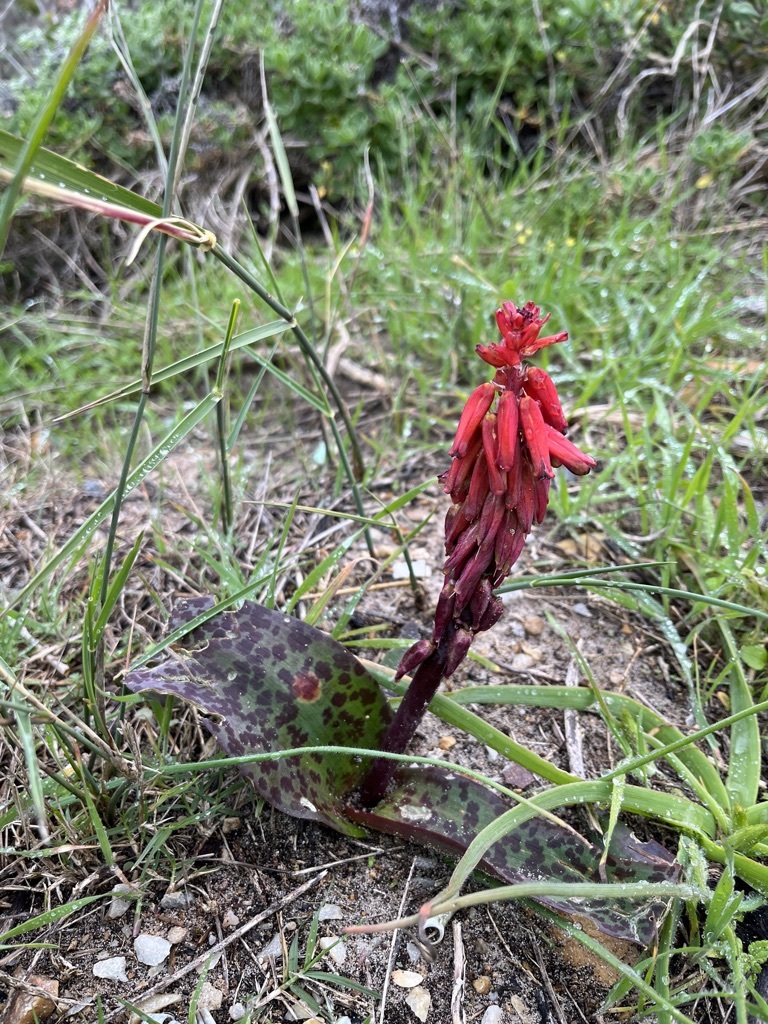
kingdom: Plantae
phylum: Tracheophyta
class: Liliopsida
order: Asparagales
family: Asparagaceae
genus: Lachenalia
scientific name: Lachenalia bulbifera
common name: Red lachenalia
